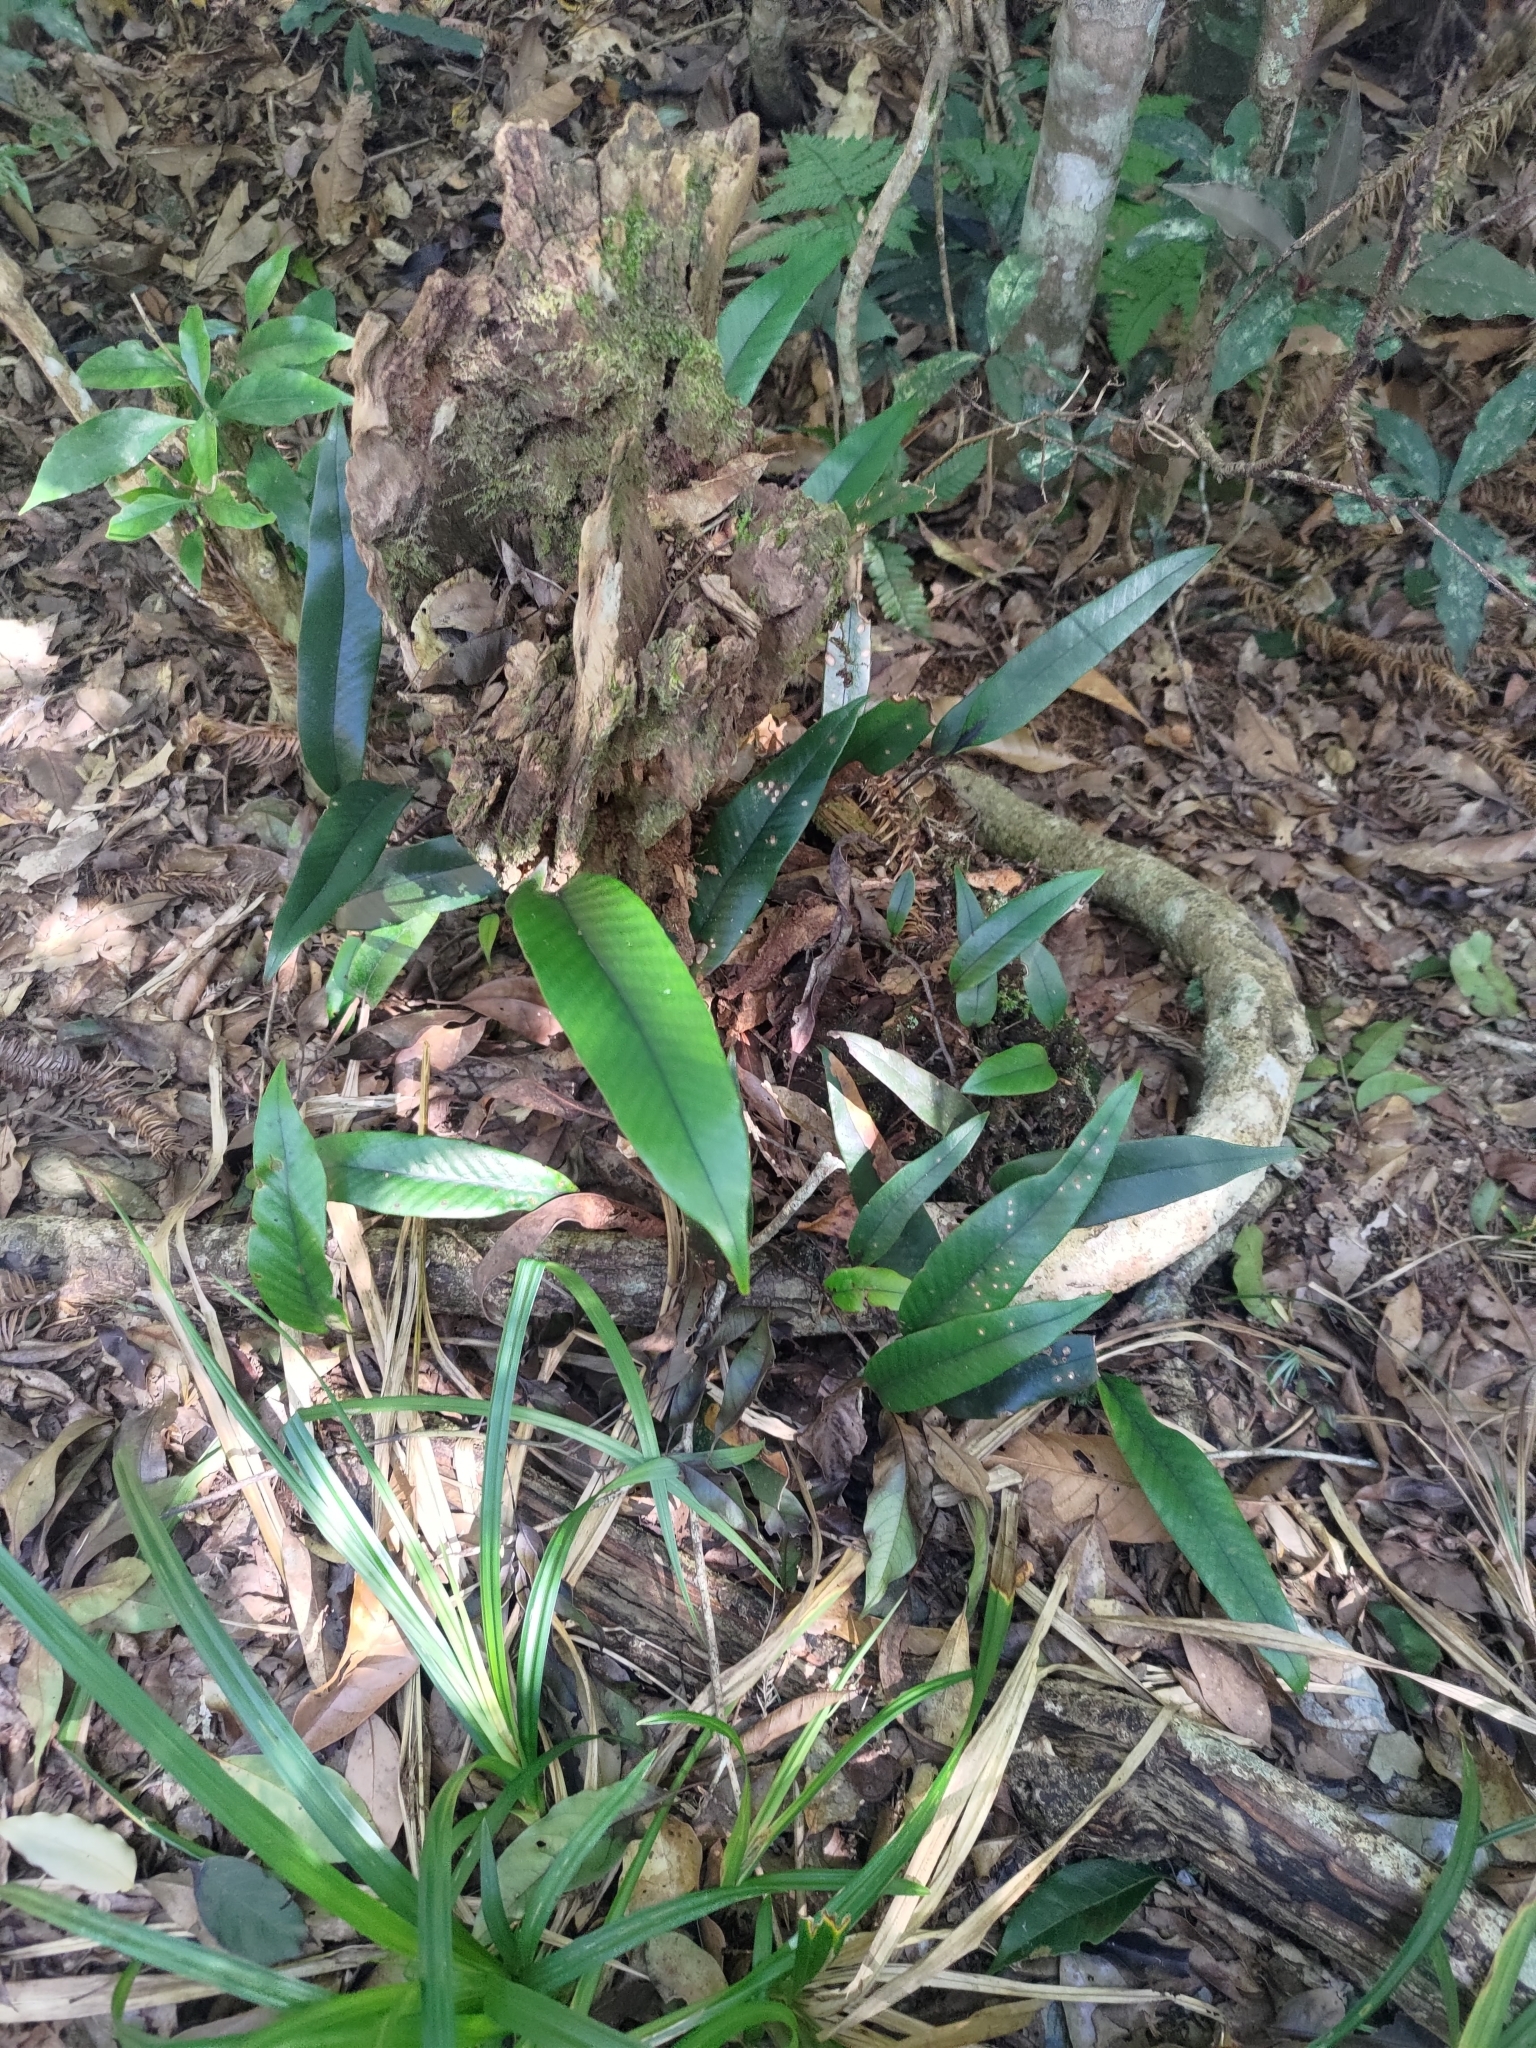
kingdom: Plantae
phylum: Tracheophyta
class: Polypodiopsida
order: Polypodiales
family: Polypodiaceae
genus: Pyrrosia
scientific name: Pyrrosia lingua
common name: Felt fern
